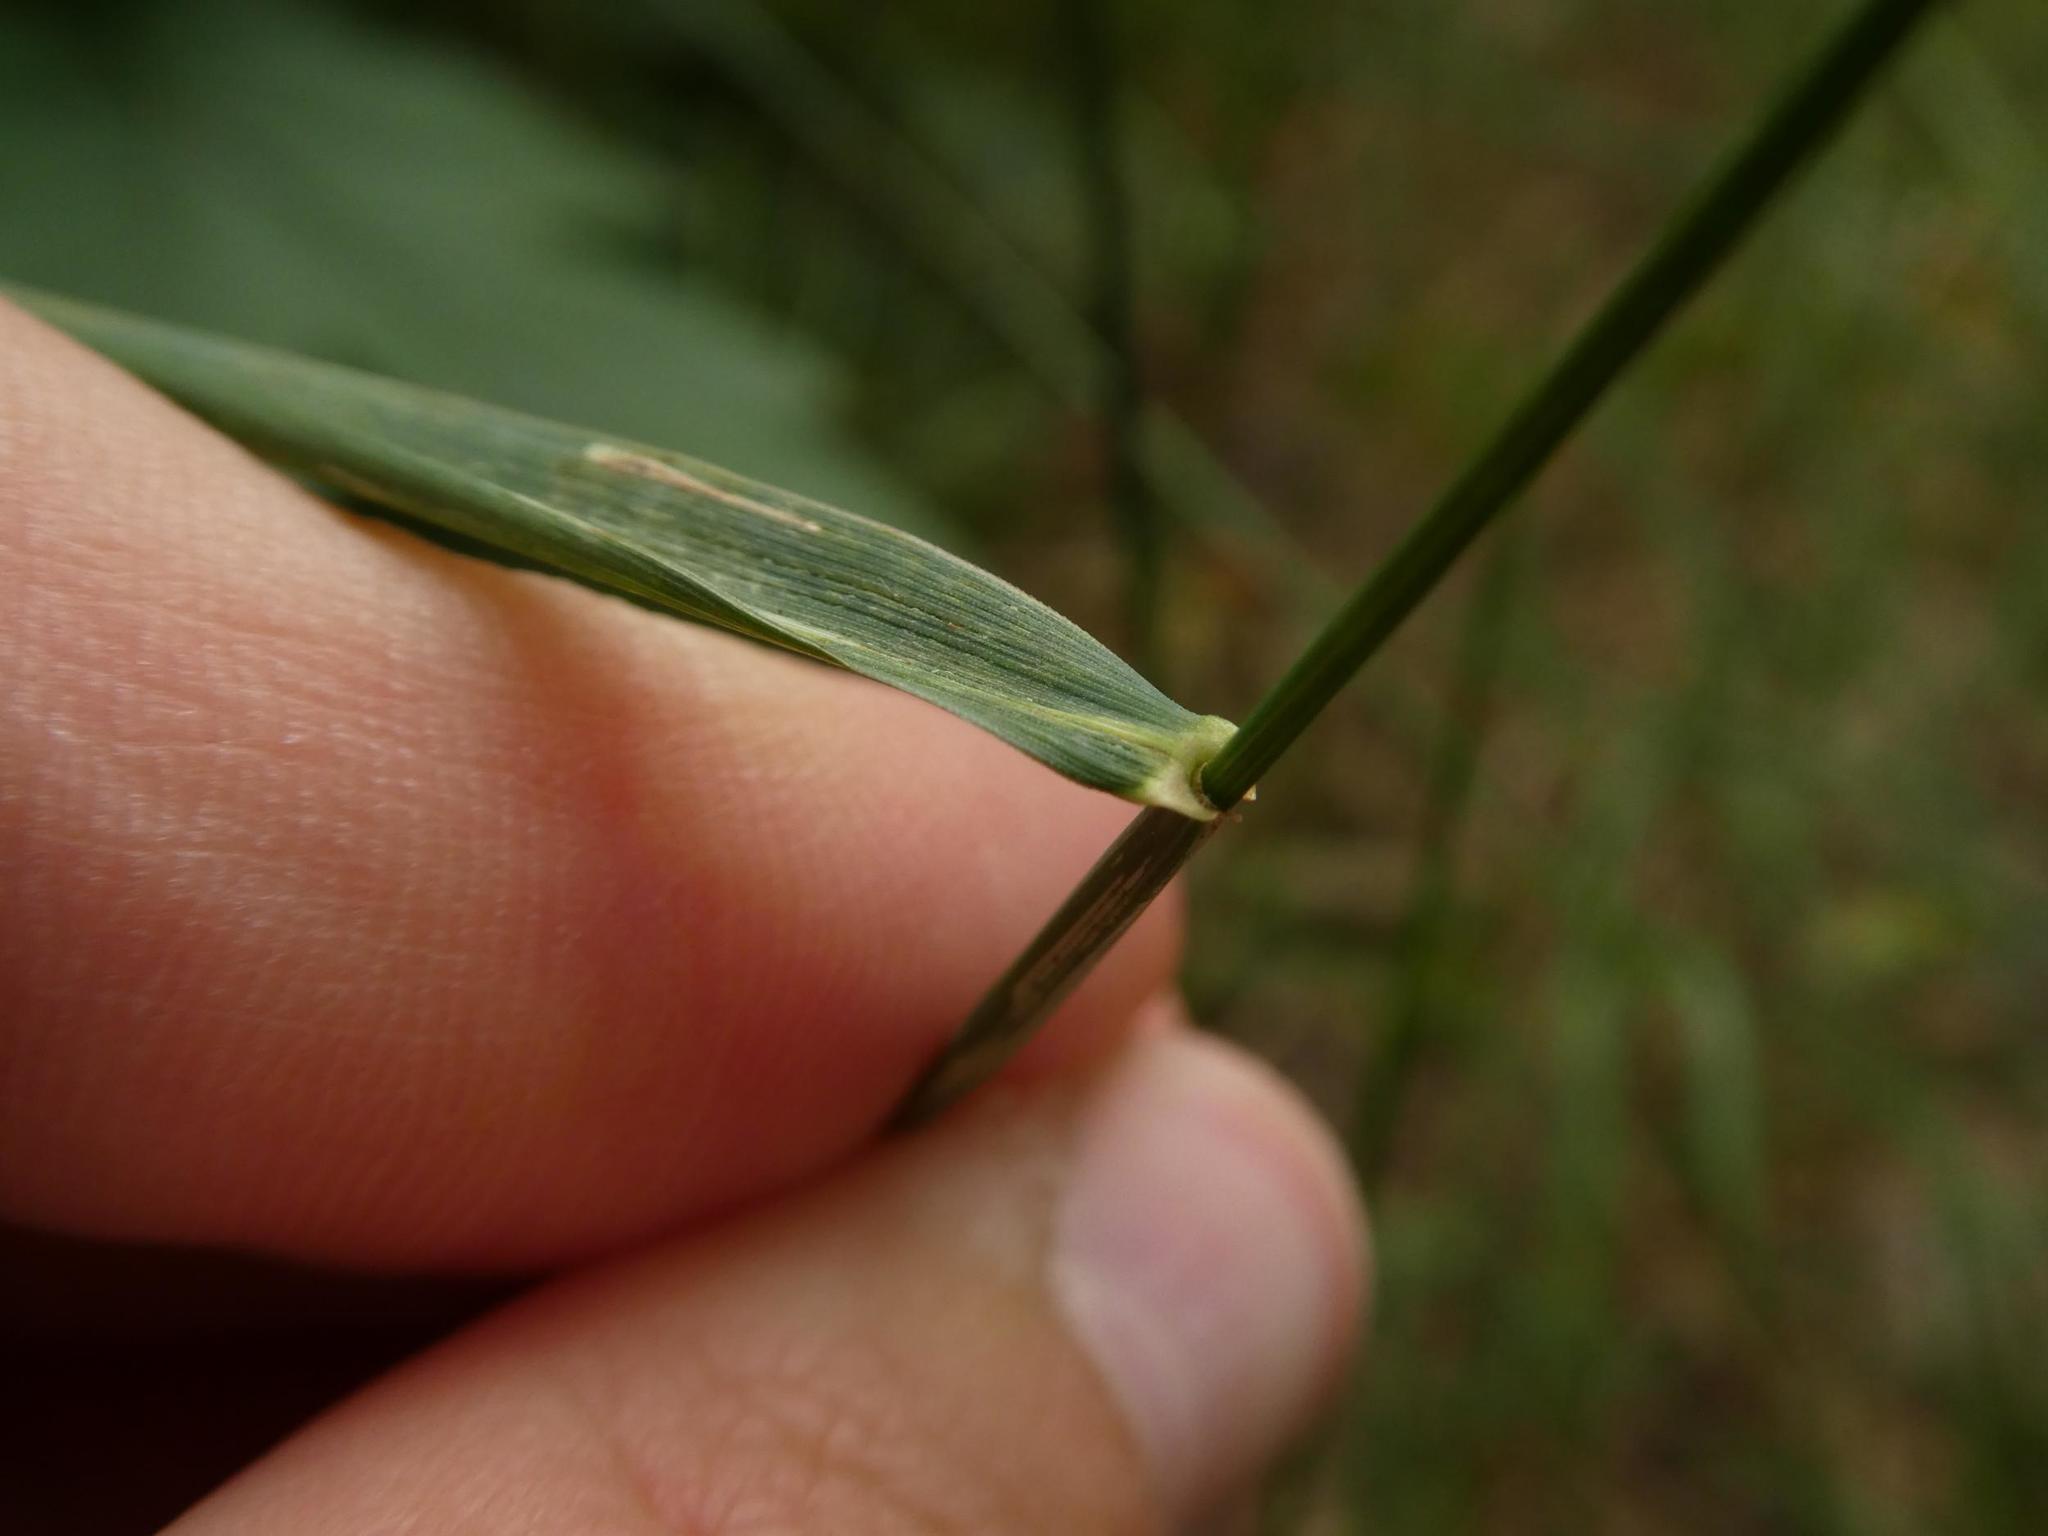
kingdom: Plantae
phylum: Tracheophyta
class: Liliopsida
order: Poales
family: Poaceae
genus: Elymus
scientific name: Elymus repens
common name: Quackgrass
